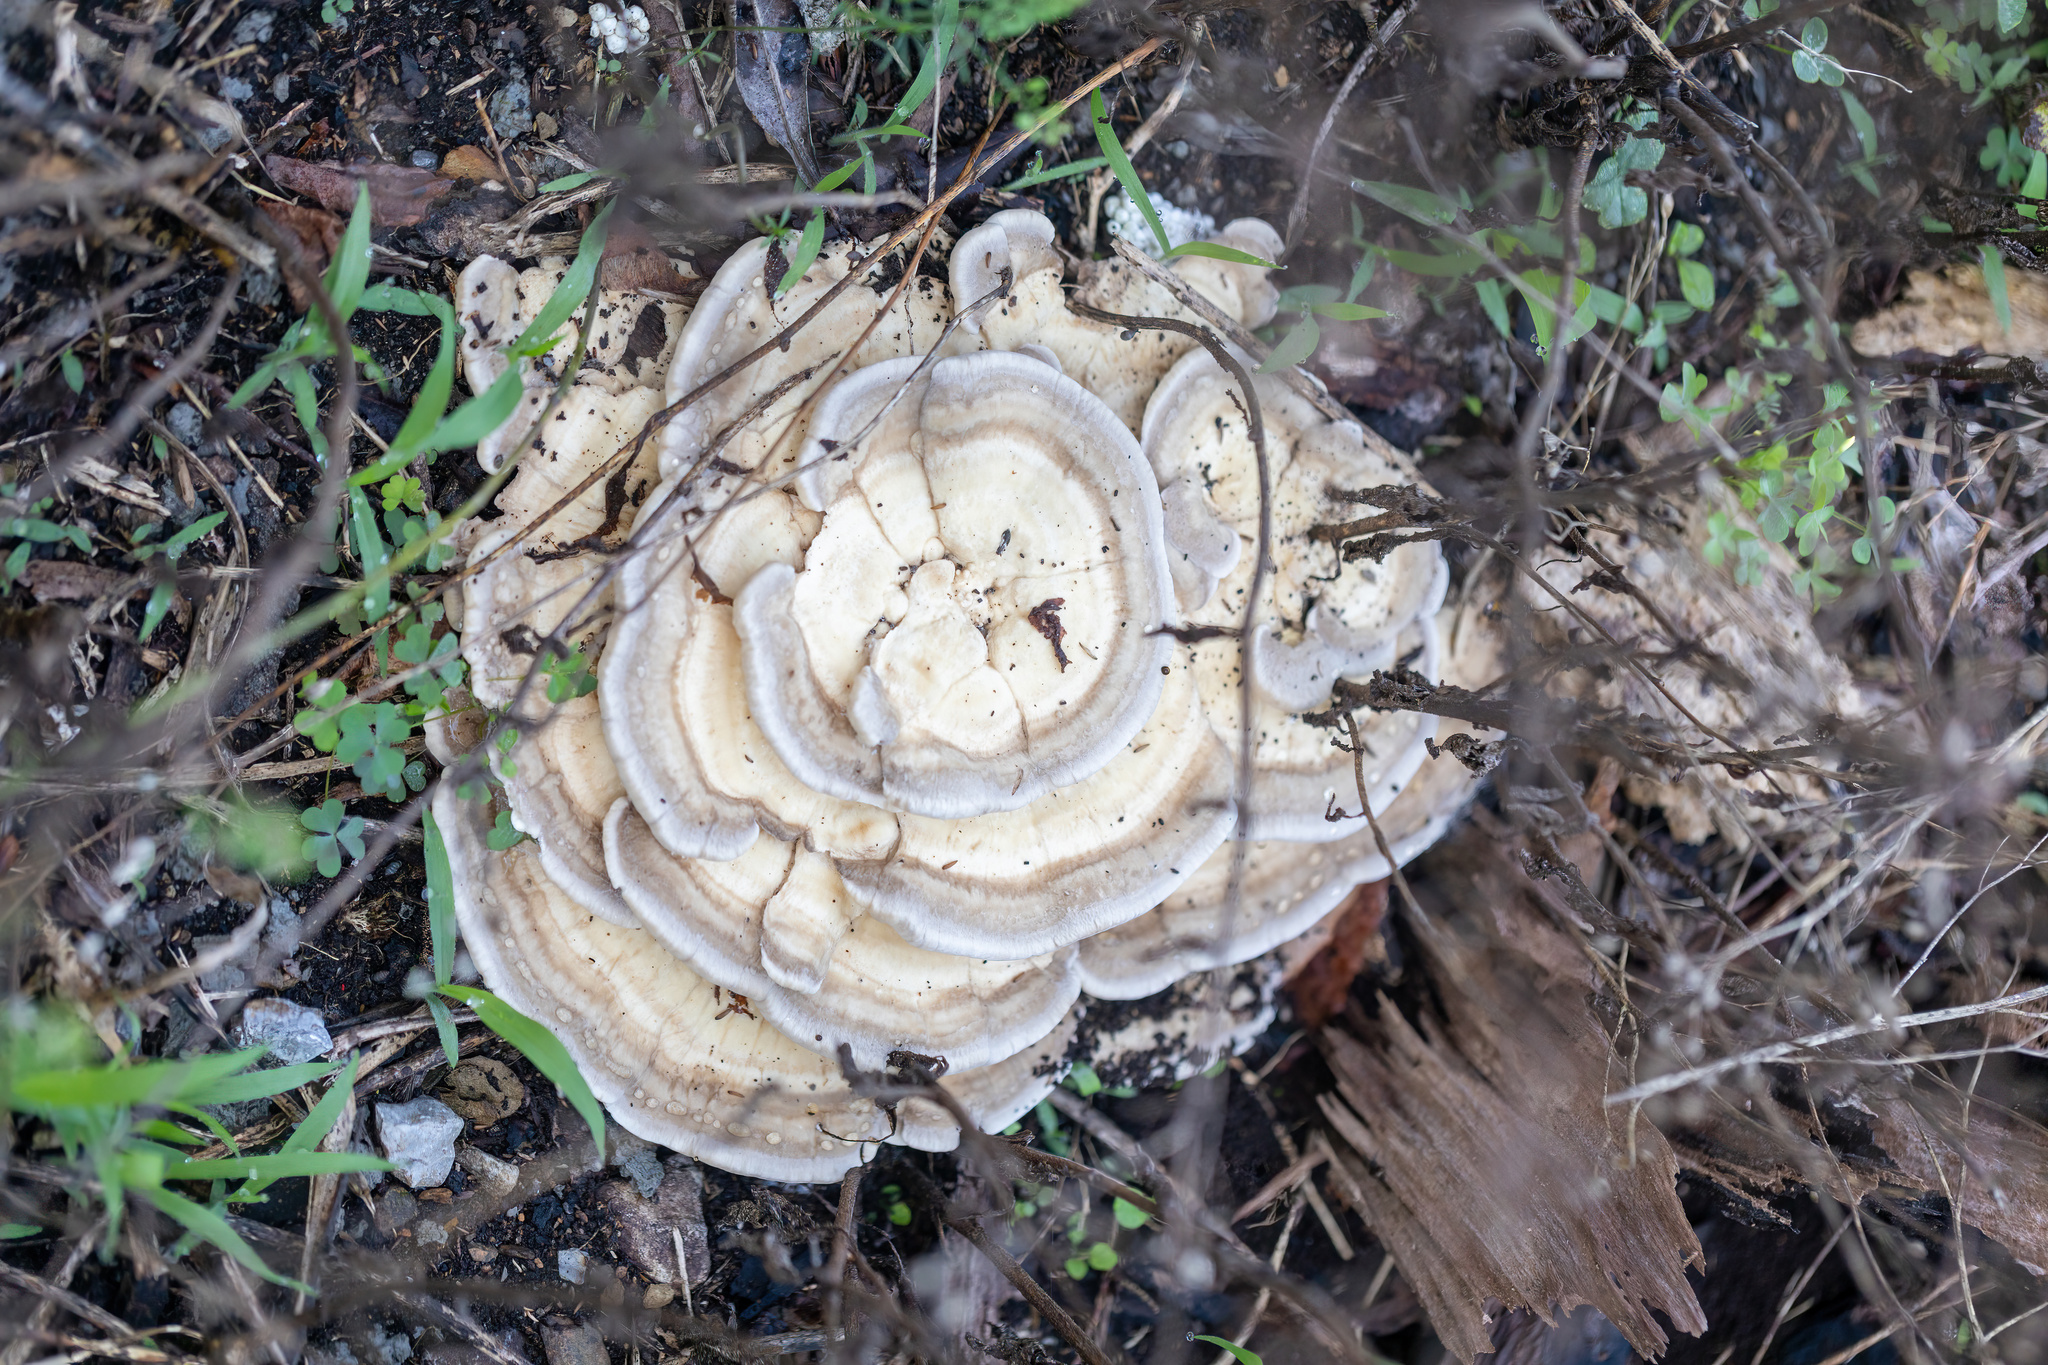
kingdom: Fungi
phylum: Basidiomycota
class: Agaricomycetes
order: Russulales
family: Bondarzewiaceae
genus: Bondarzewia
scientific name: Bondarzewia berkeleyi
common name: Berkeley's polypore
